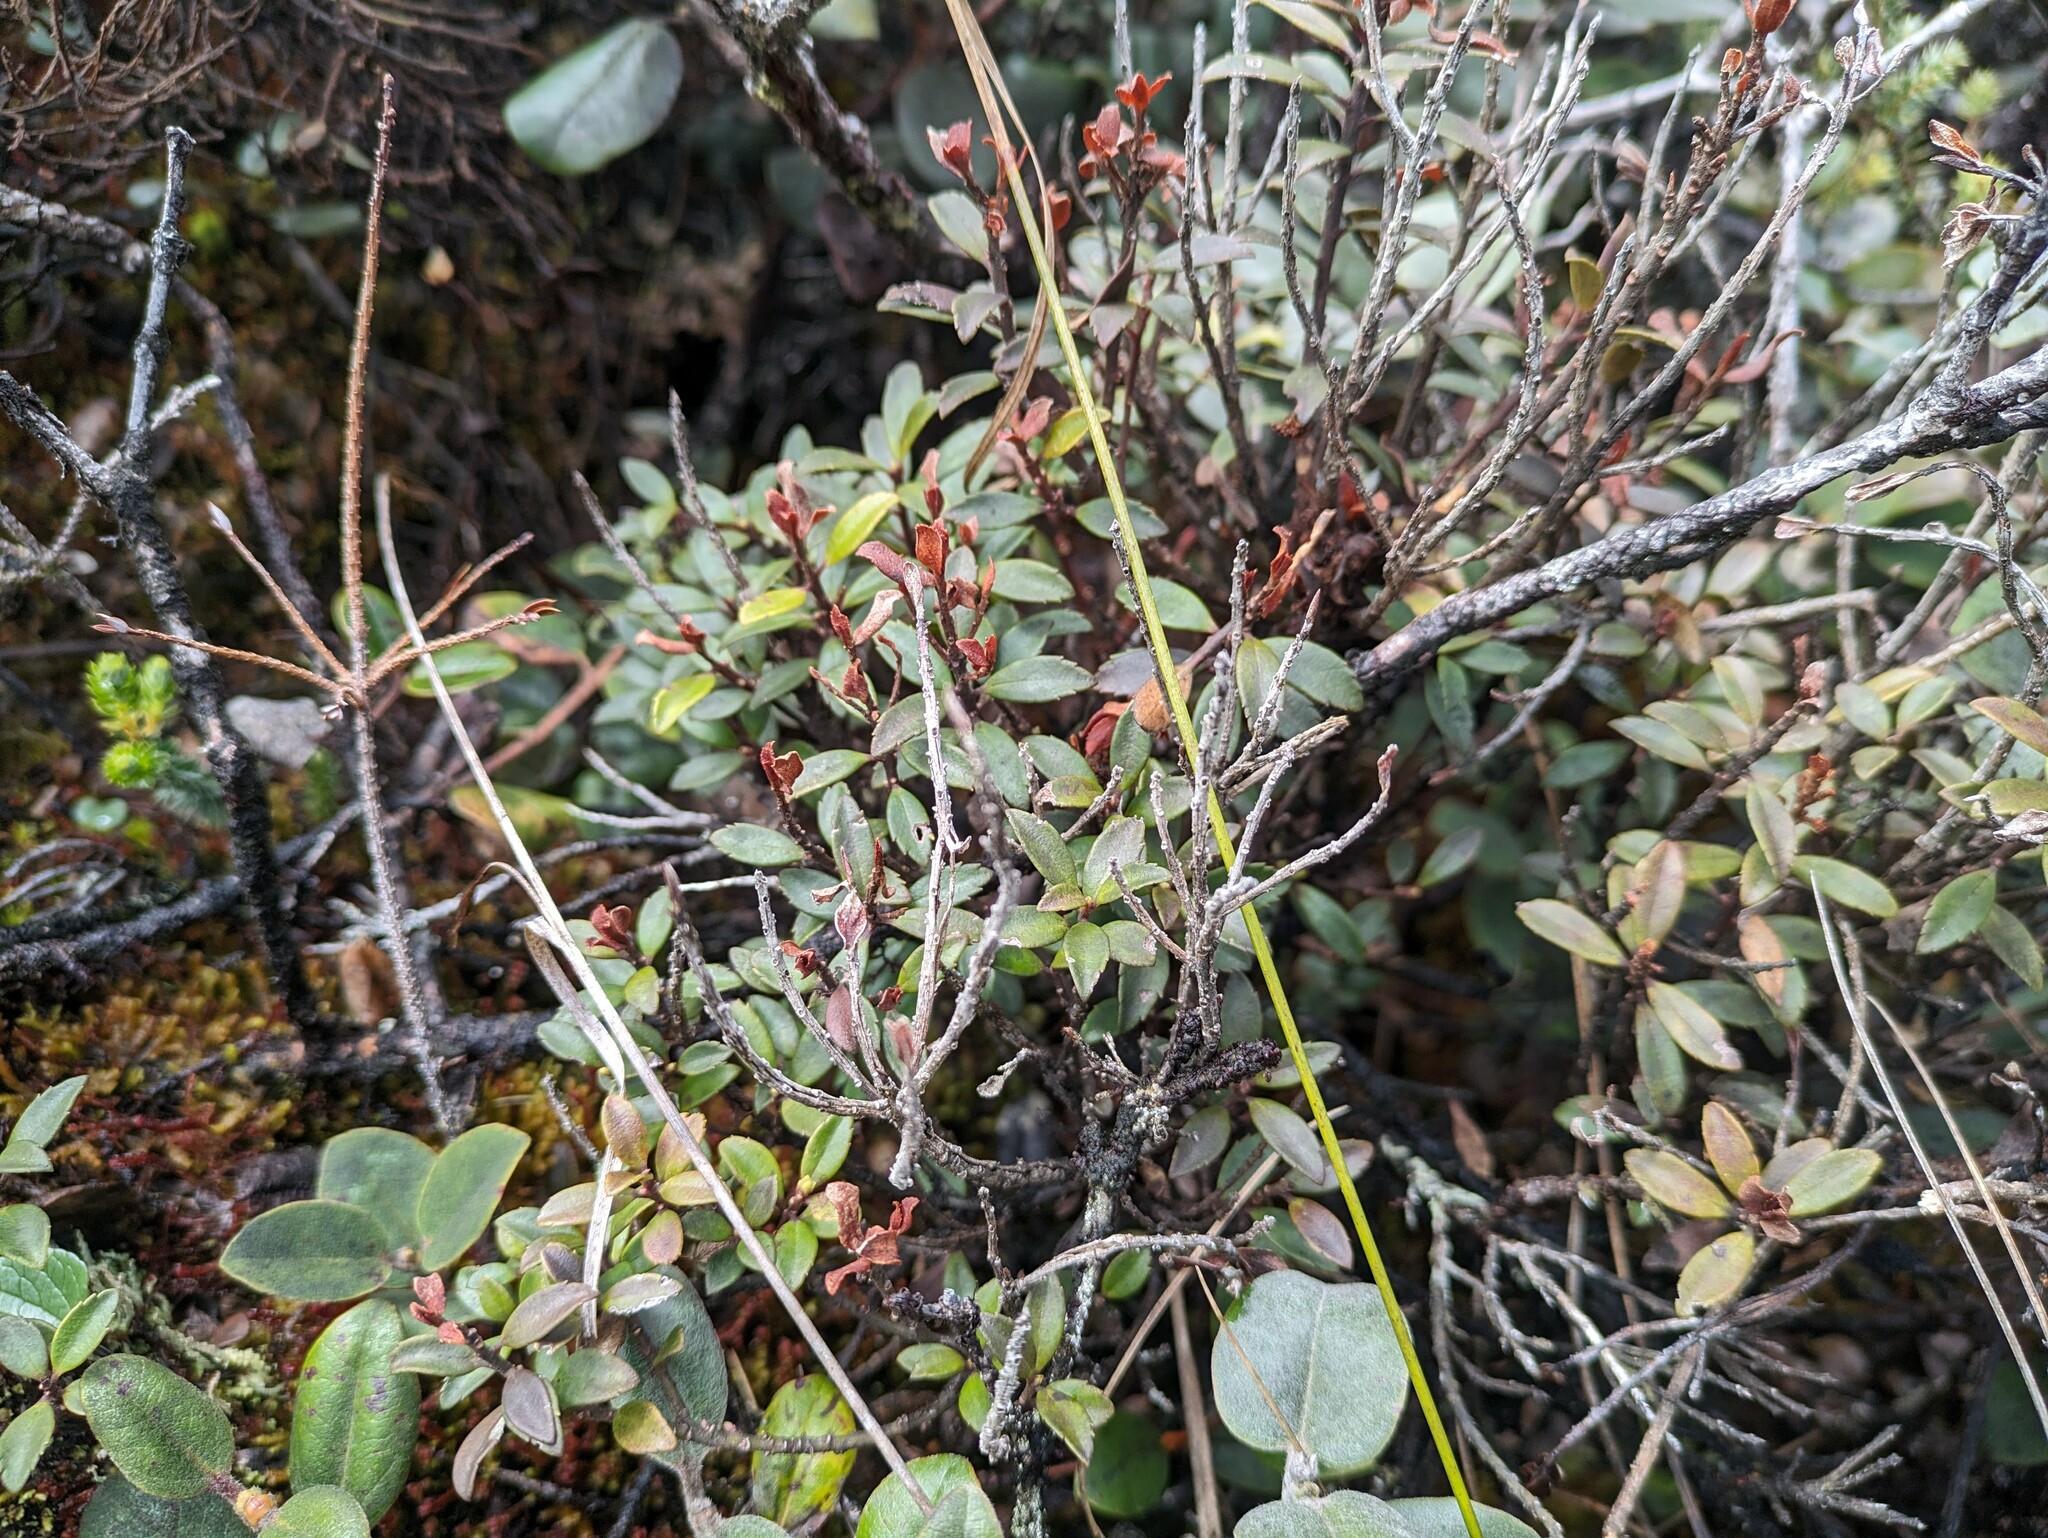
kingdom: Plantae
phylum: Tracheophyta
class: Magnoliopsida
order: Ericales
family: Primulaceae
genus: Myrsine
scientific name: Myrsine denticulata
